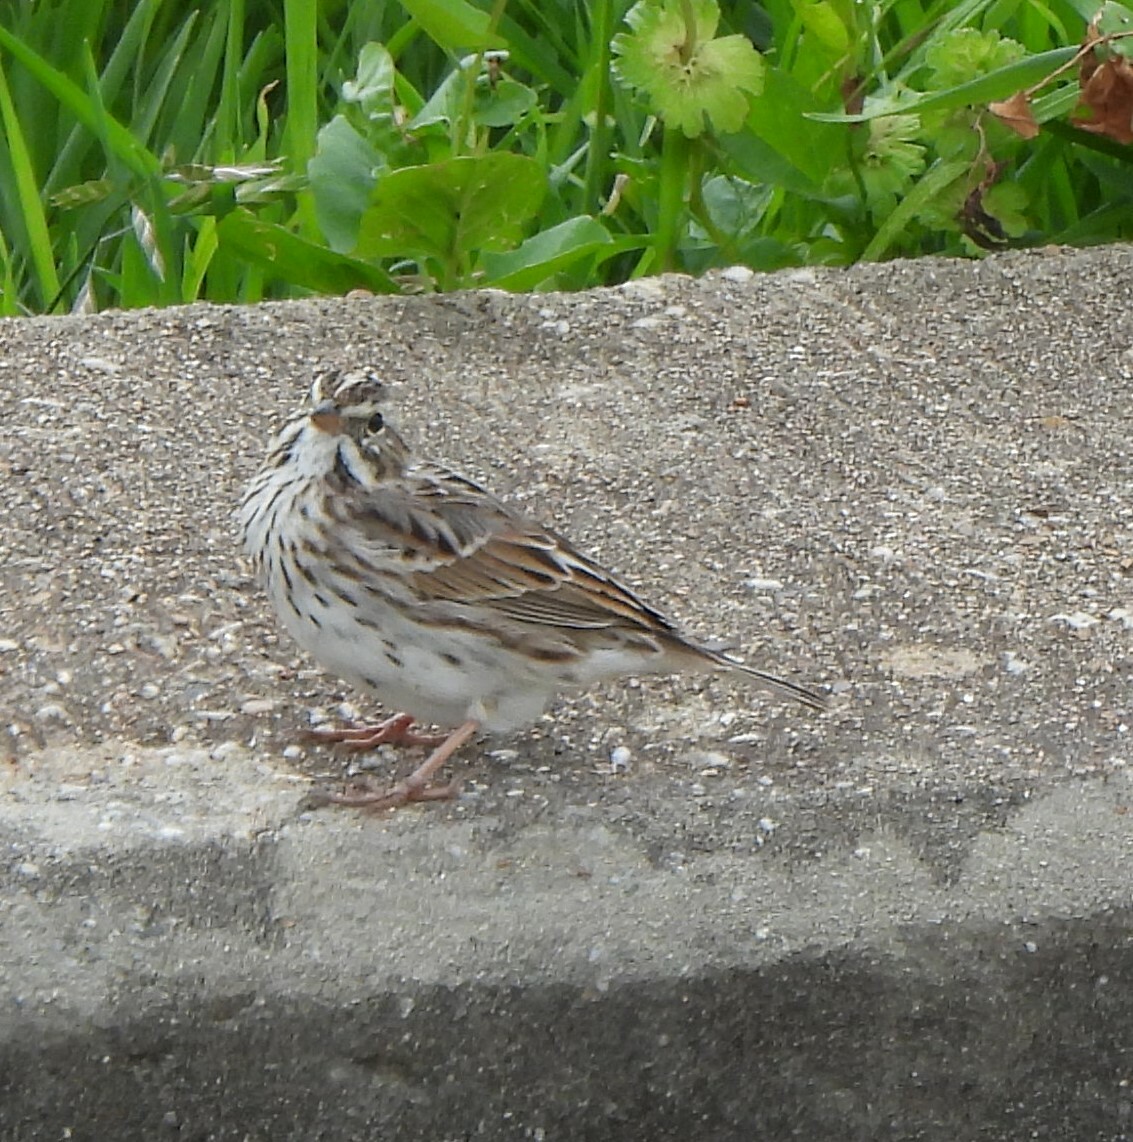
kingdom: Animalia
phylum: Chordata
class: Aves
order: Passeriformes
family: Passerellidae
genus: Passerculus
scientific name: Passerculus sandwichensis
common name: Savannah sparrow
